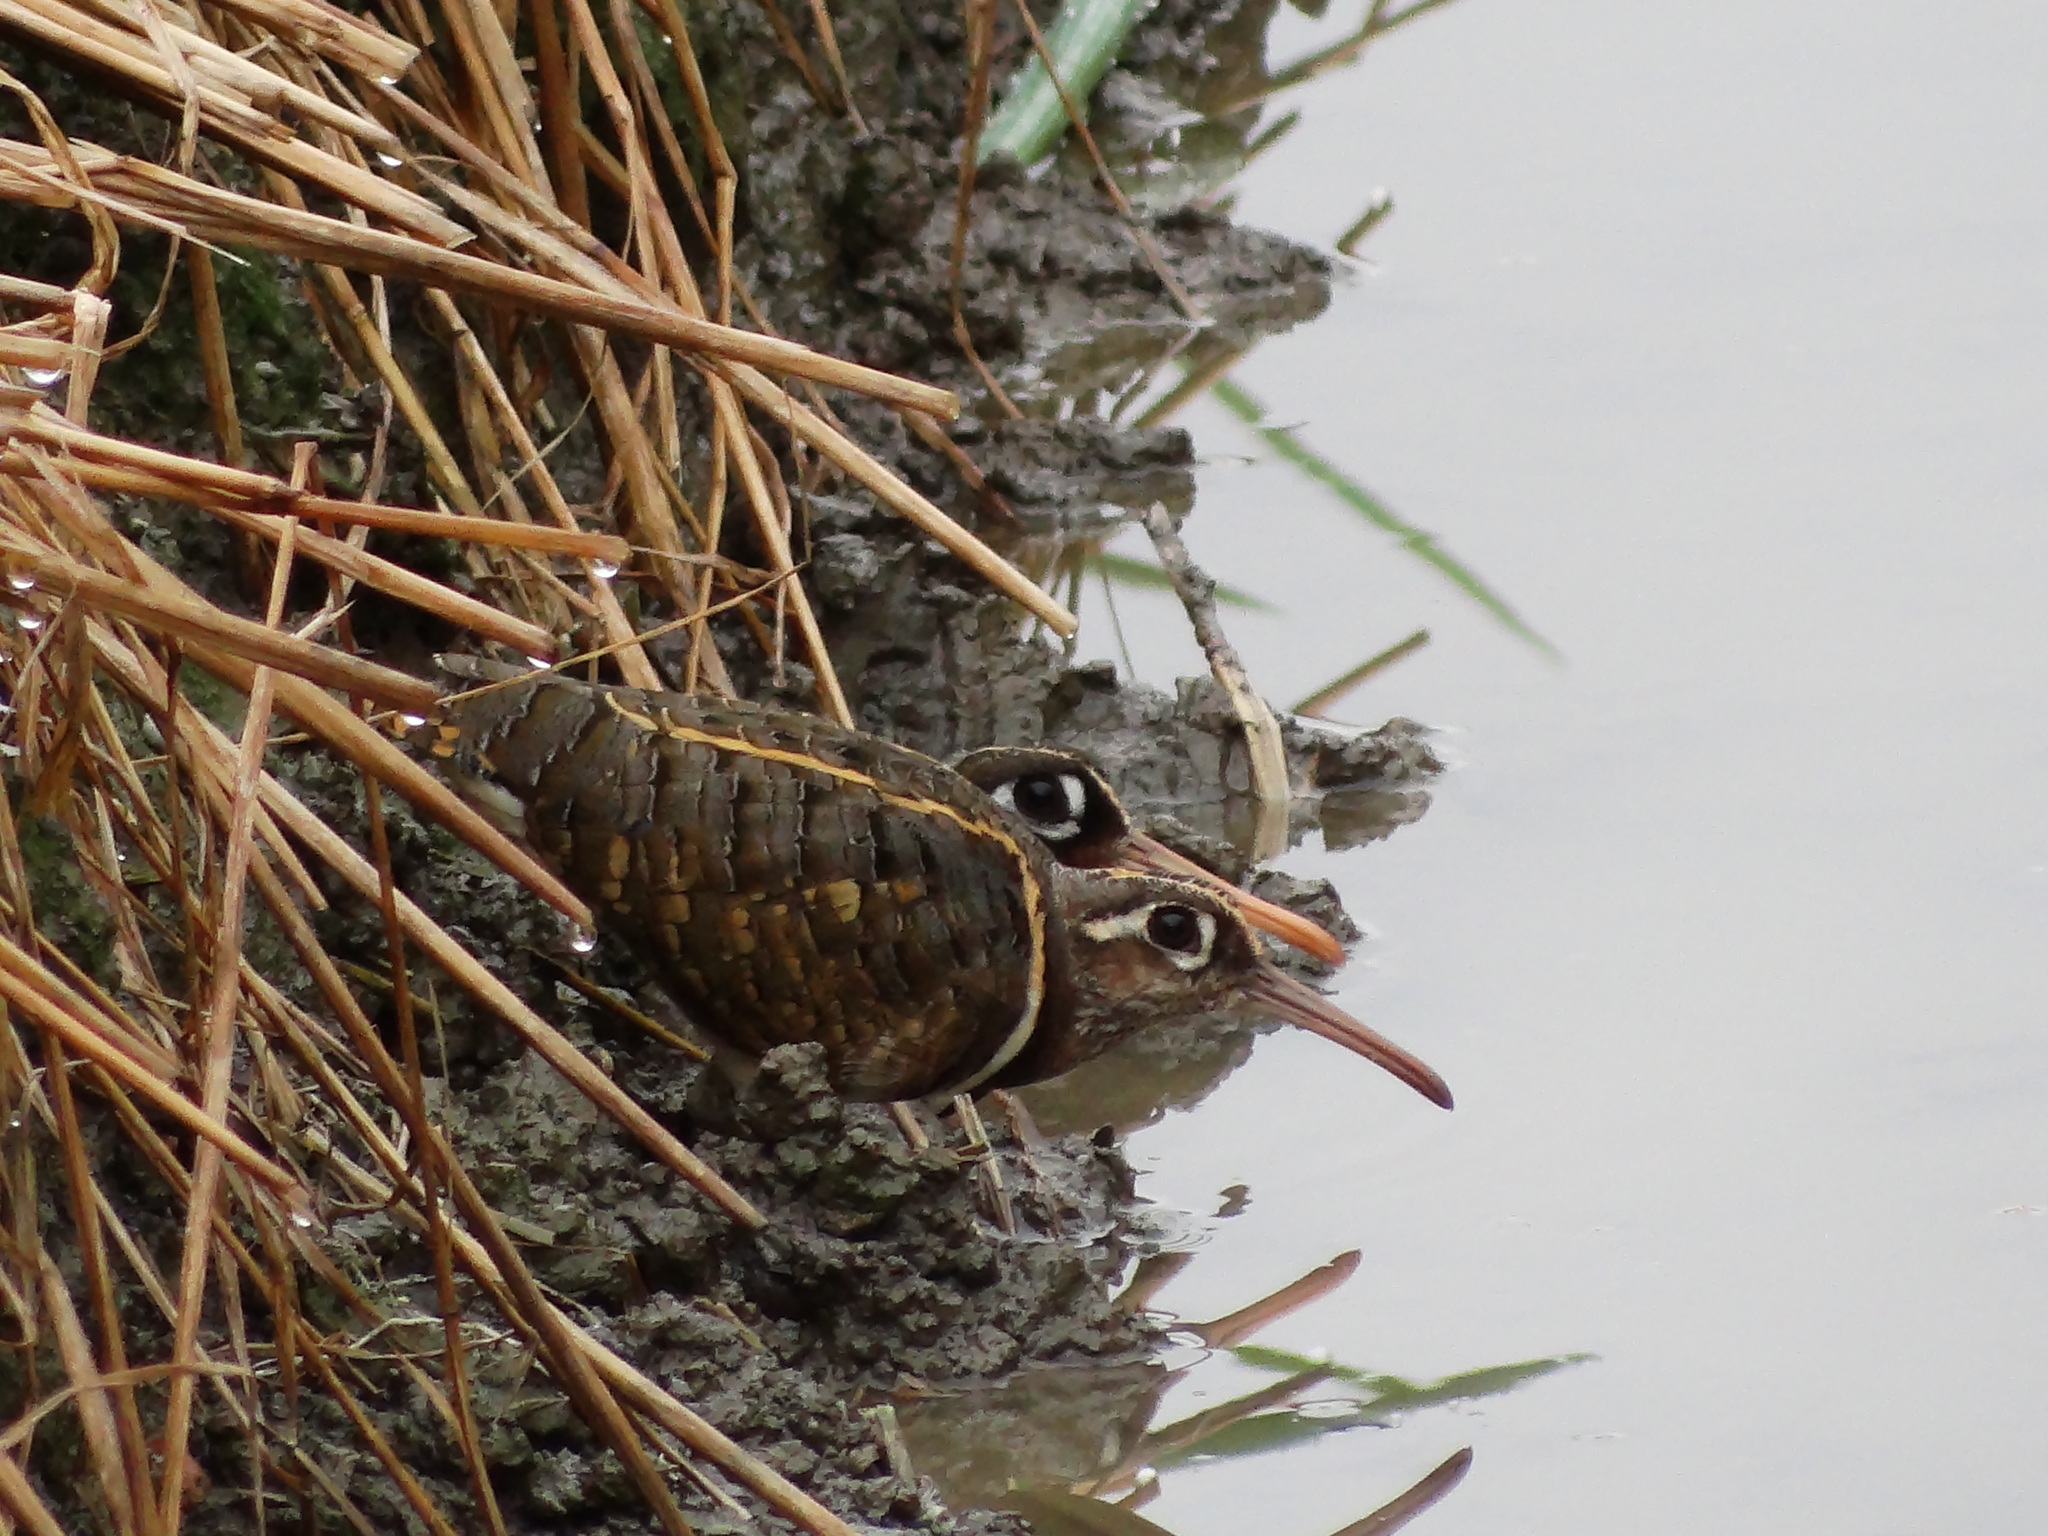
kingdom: Animalia
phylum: Chordata
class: Aves
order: Charadriiformes
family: Rostratulidae
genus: Rostratula
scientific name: Rostratula benghalensis
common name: Greater painted-snipe
